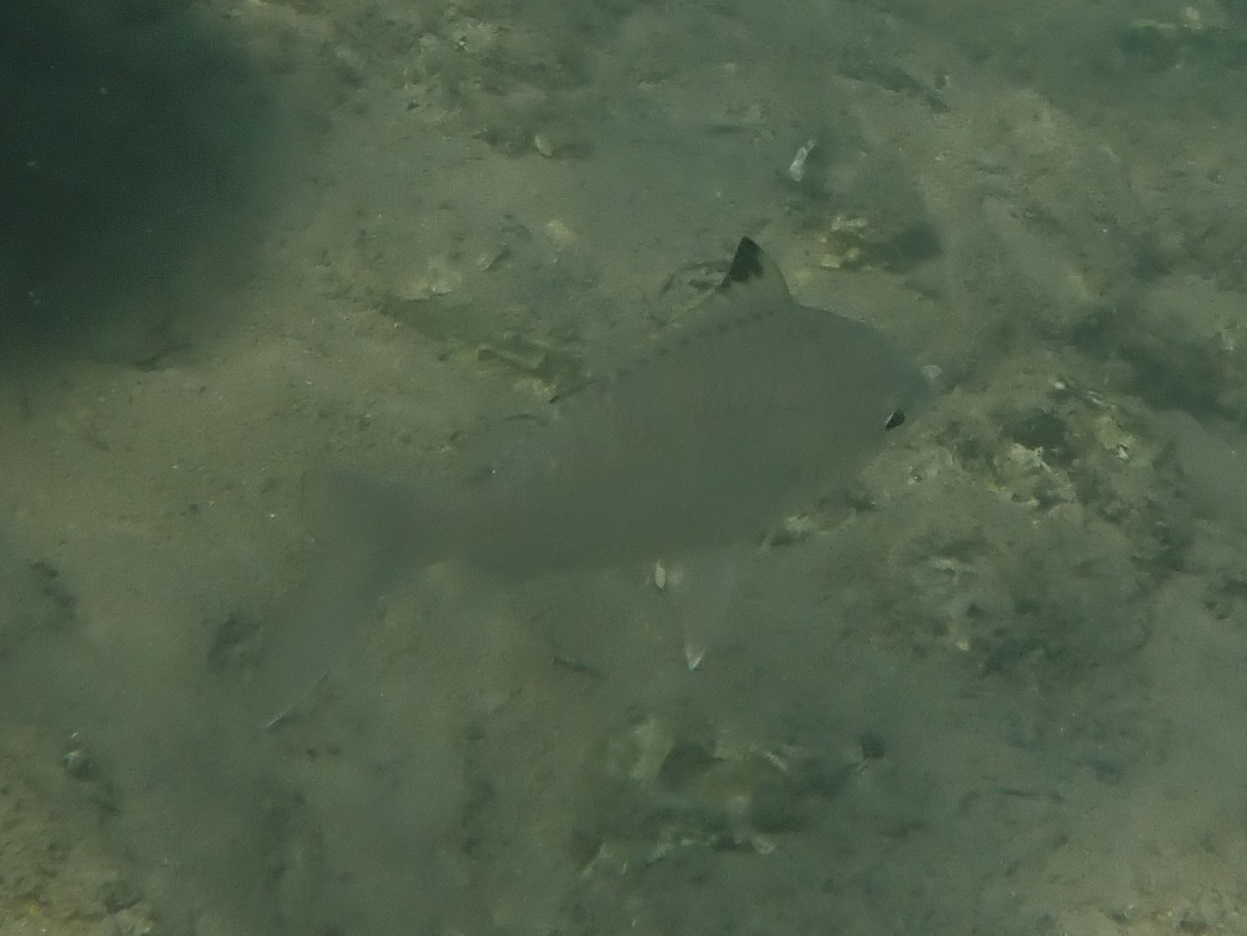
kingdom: Animalia
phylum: Chordata
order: Perciformes
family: Gerreidae
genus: Gerres
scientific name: Gerres subfasciatus
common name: Common silver belly
